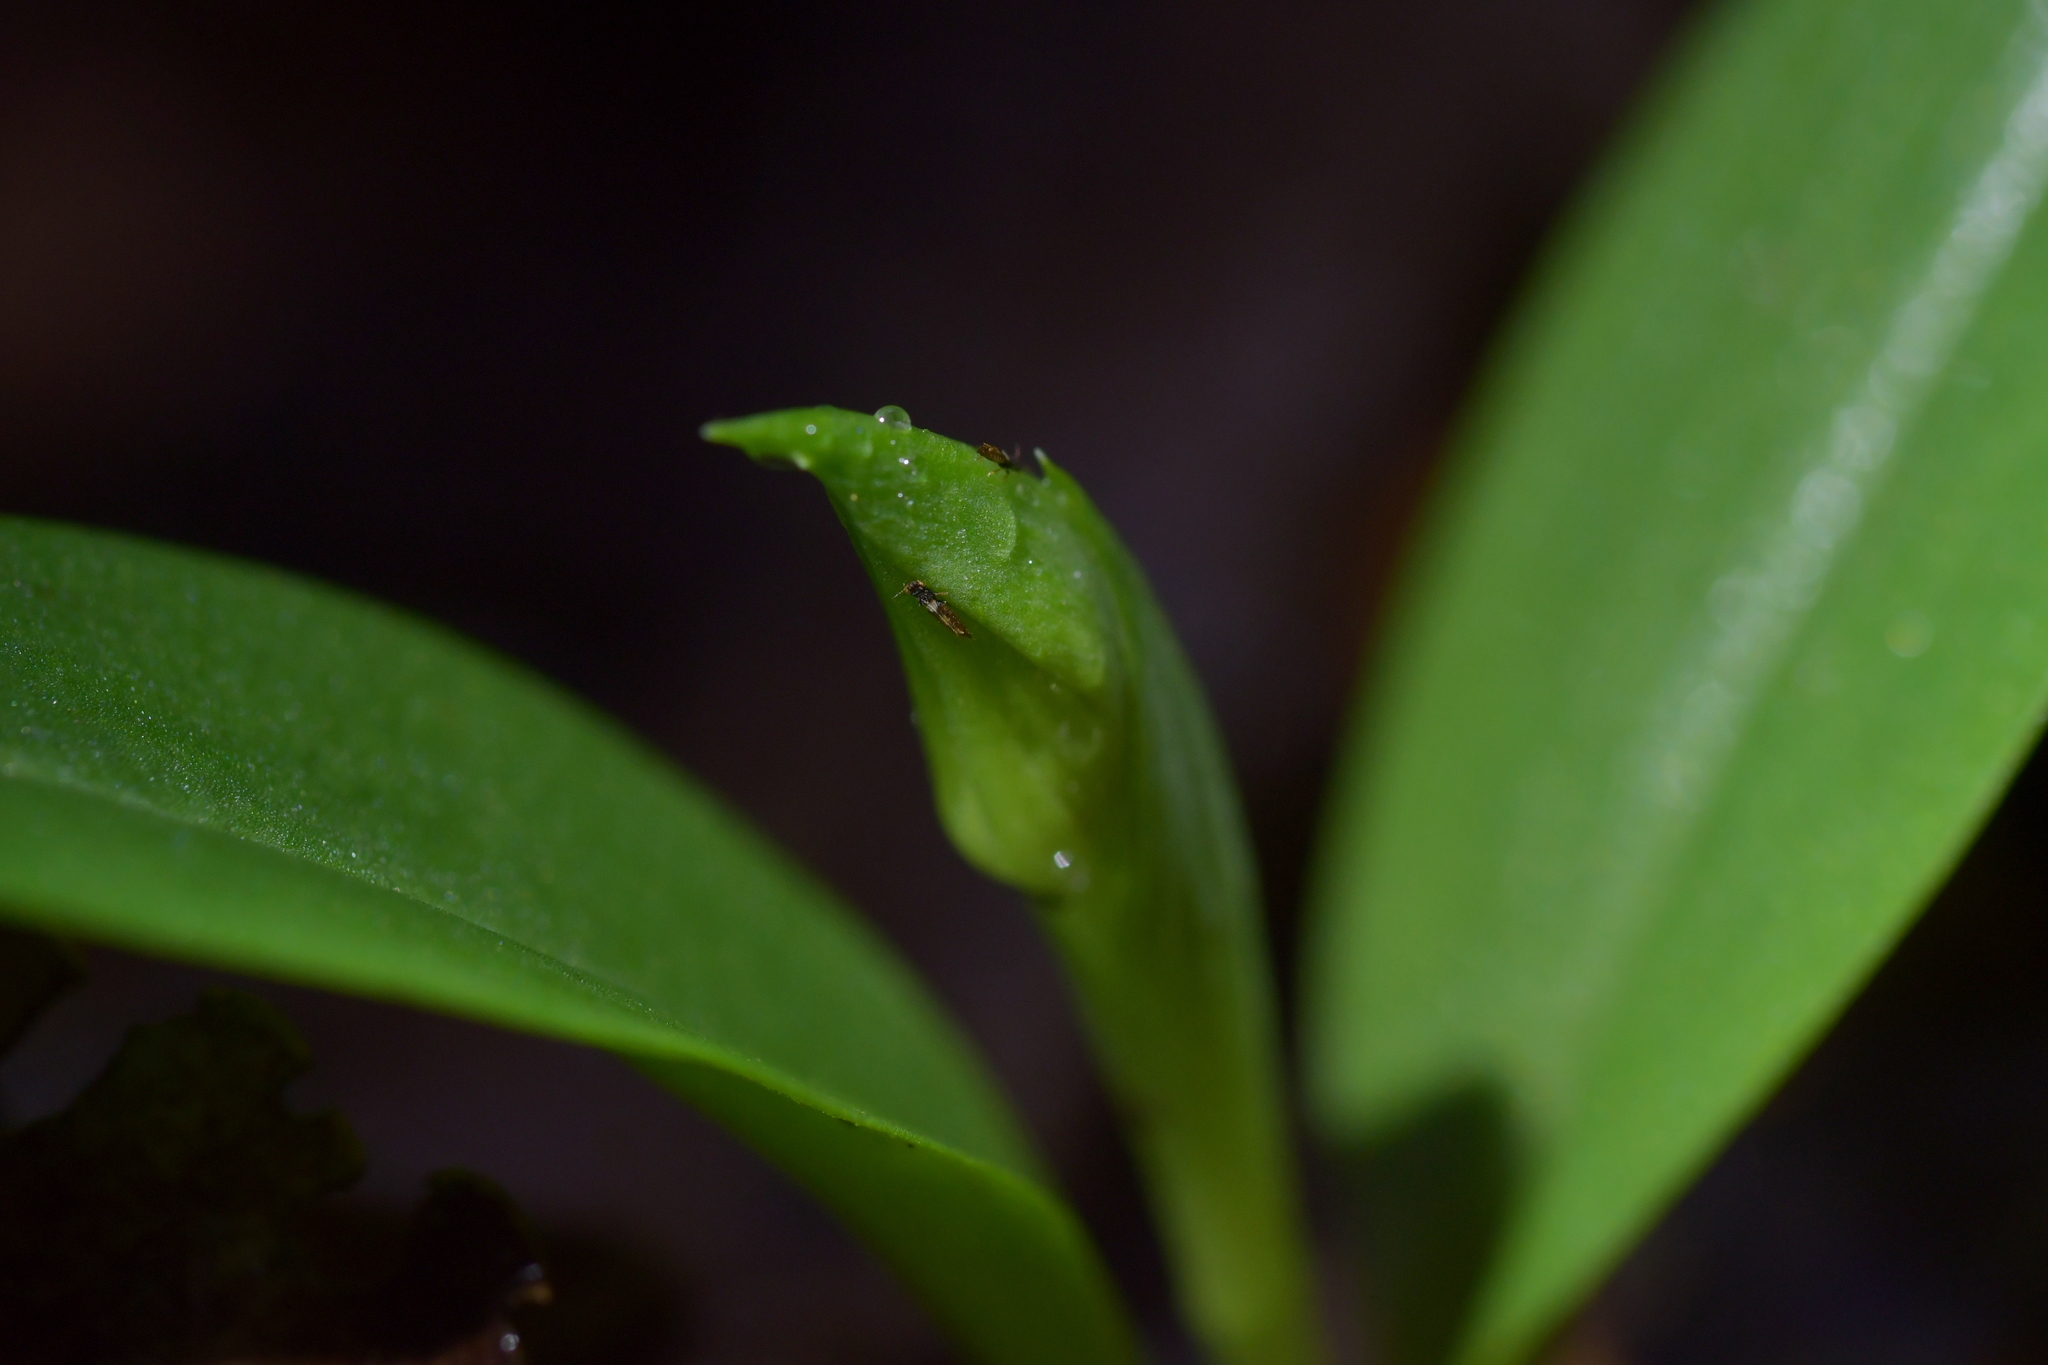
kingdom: Plantae
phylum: Tracheophyta
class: Liliopsida
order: Asparagales
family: Orchidaceae
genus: Chiloglottis
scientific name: Chiloglottis cornuta
